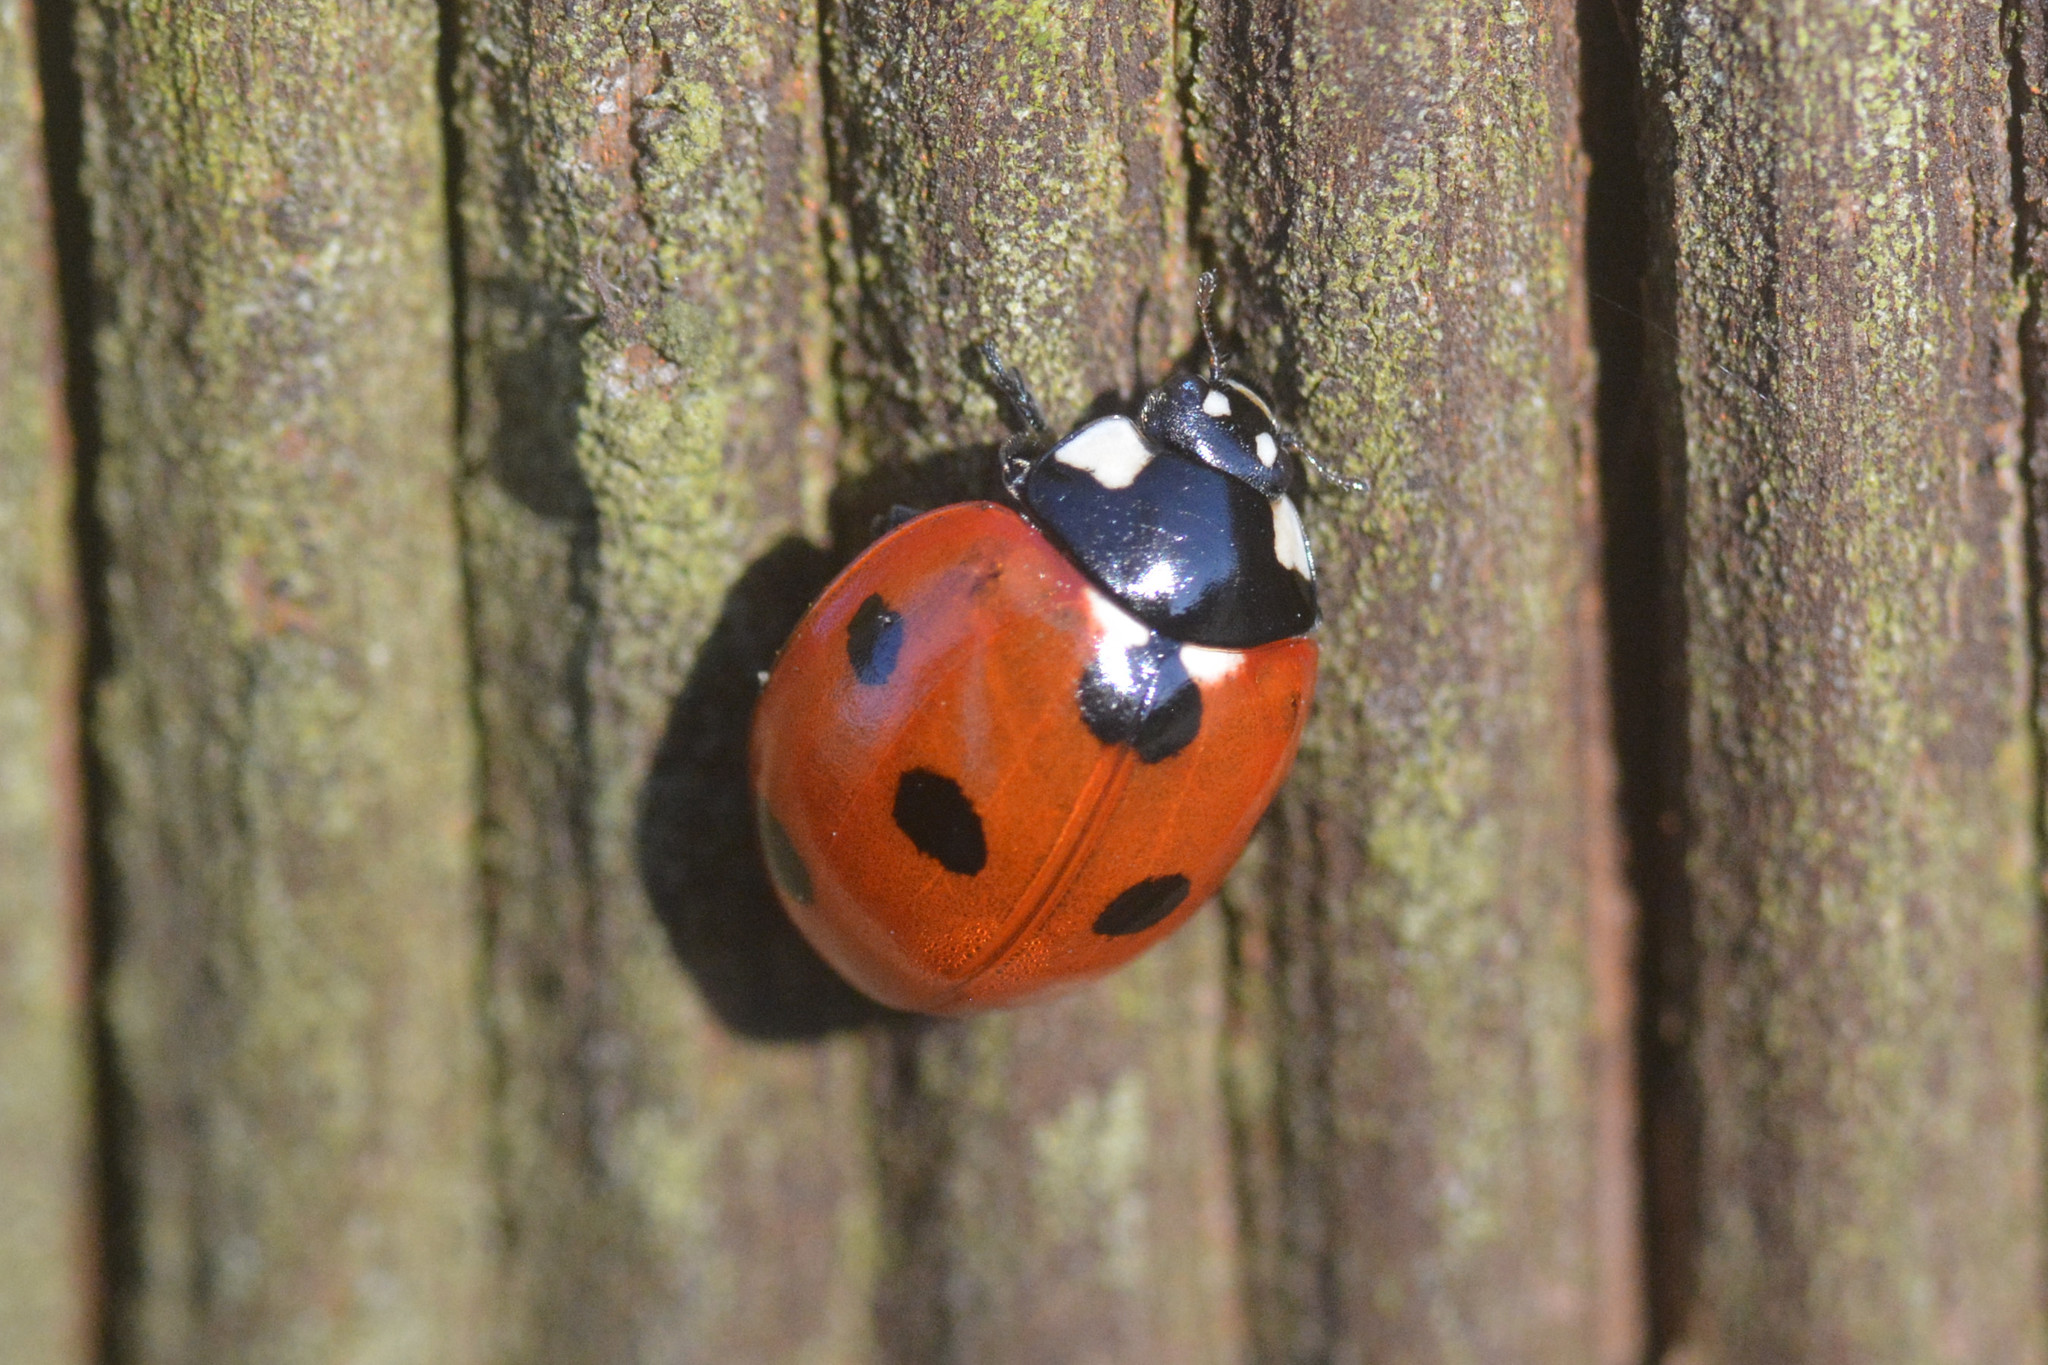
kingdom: Animalia
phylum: Arthropoda
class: Insecta
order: Coleoptera
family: Coccinellidae
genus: Coccinella
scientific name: Coccinella septempunctata
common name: Sevenspotted lady beetle
